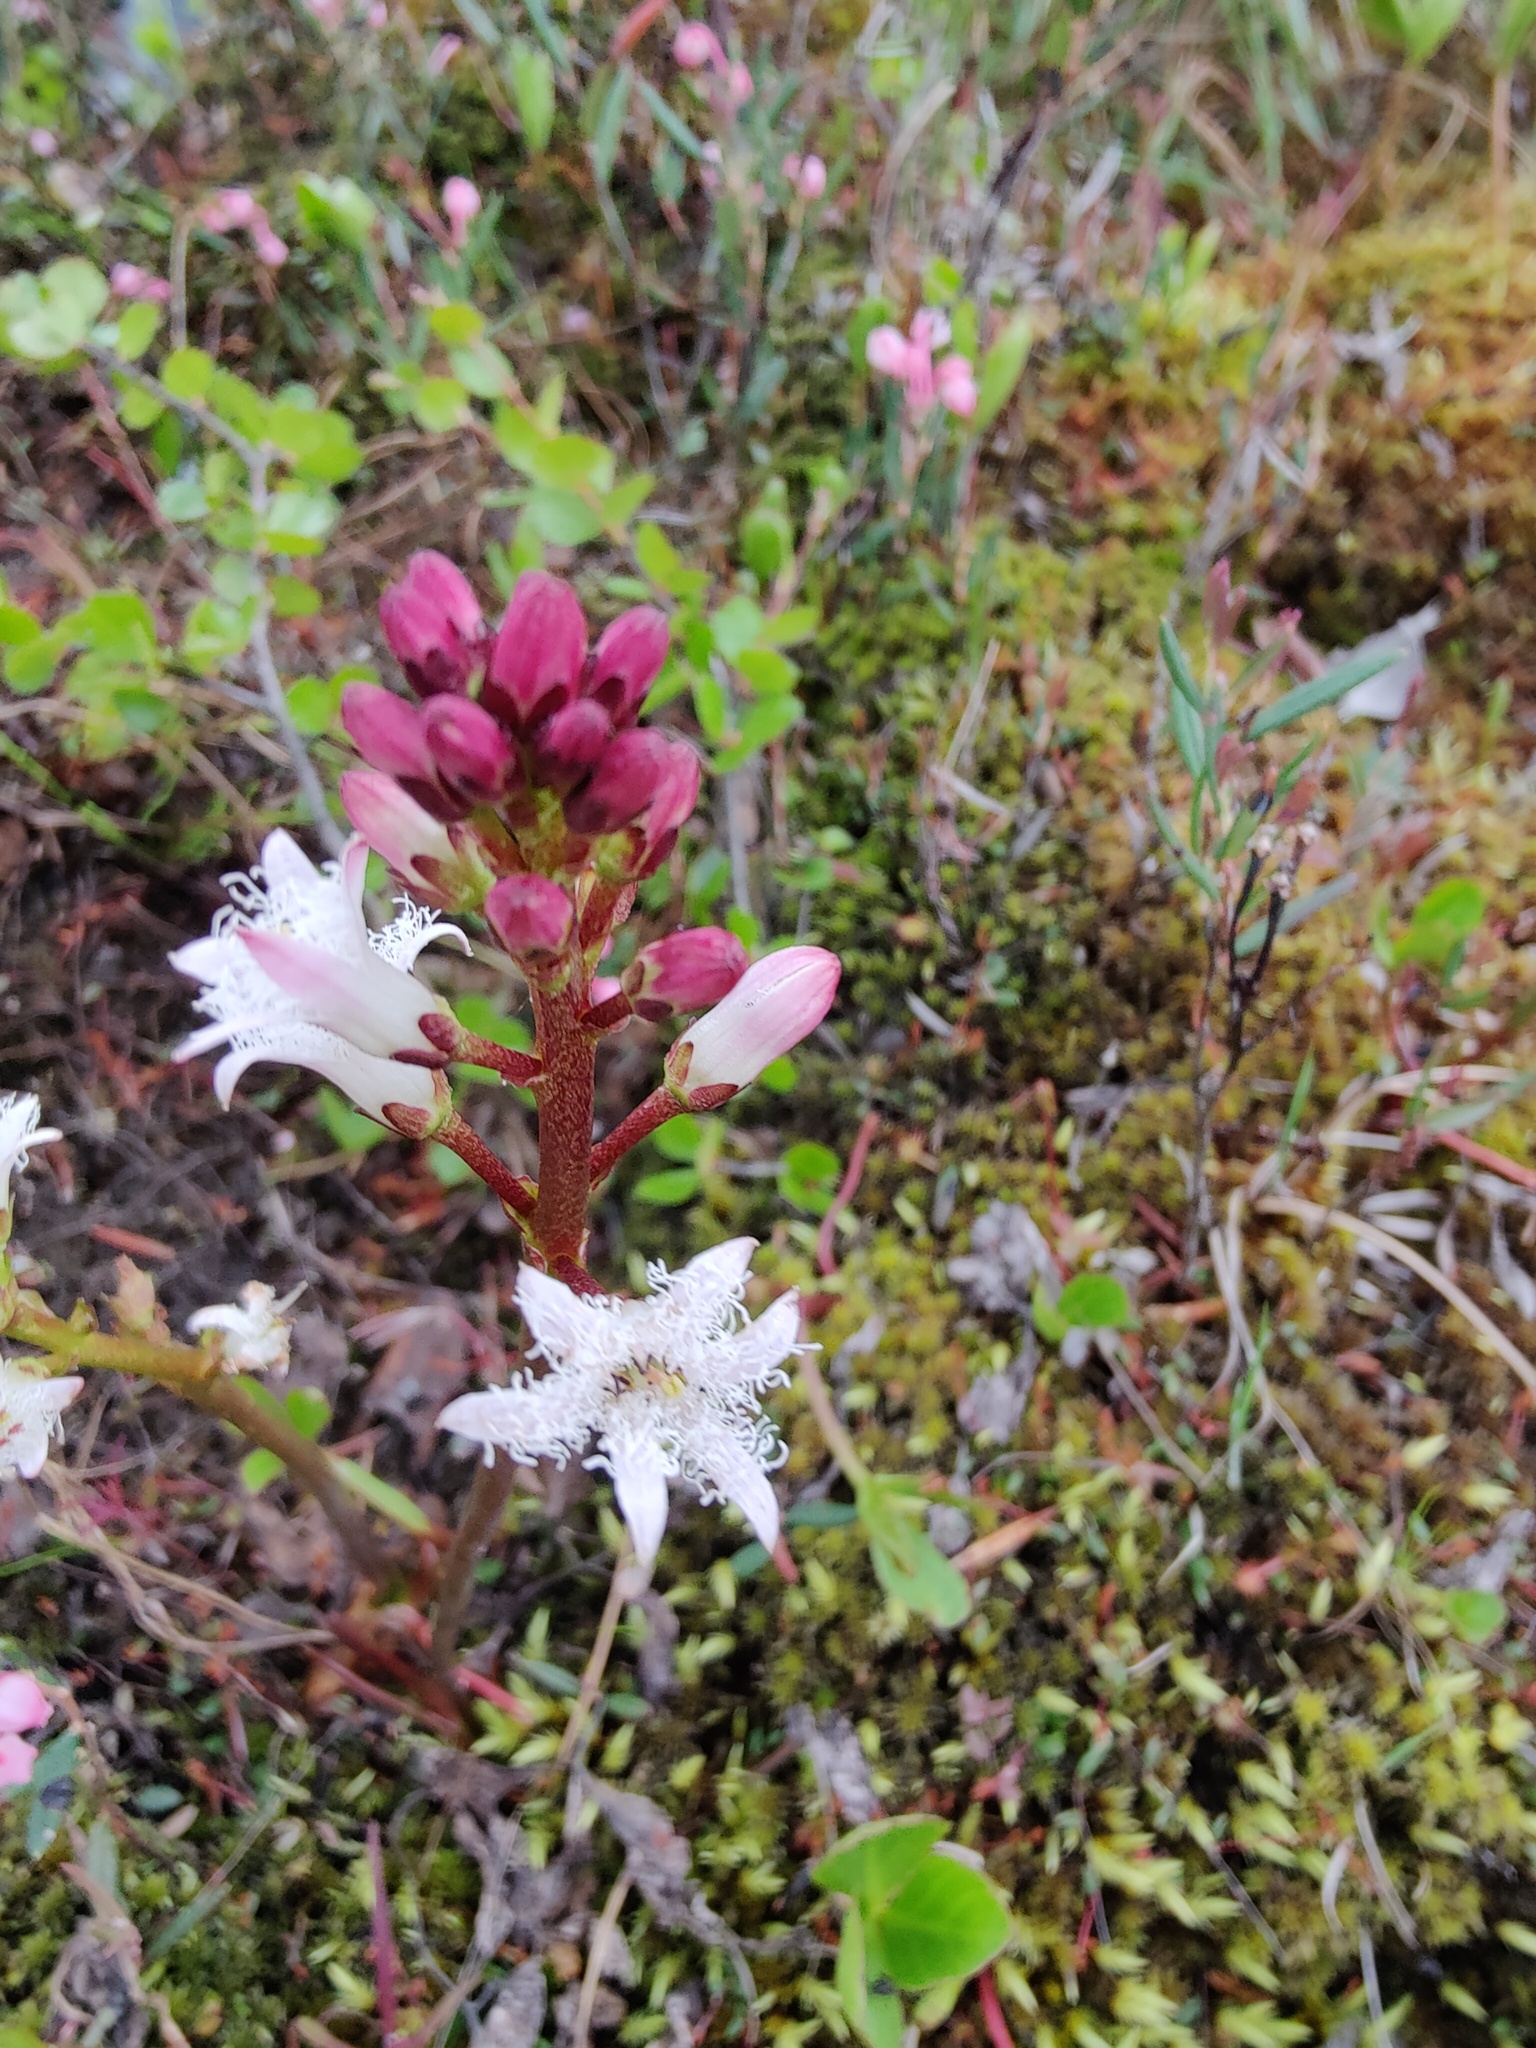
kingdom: Plantae
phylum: Tracheophyta
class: Magnoliopsida
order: Asterales
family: Menyanthaceae
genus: Menyanthes
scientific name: Menyanthes trifoliata
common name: Bogbean
